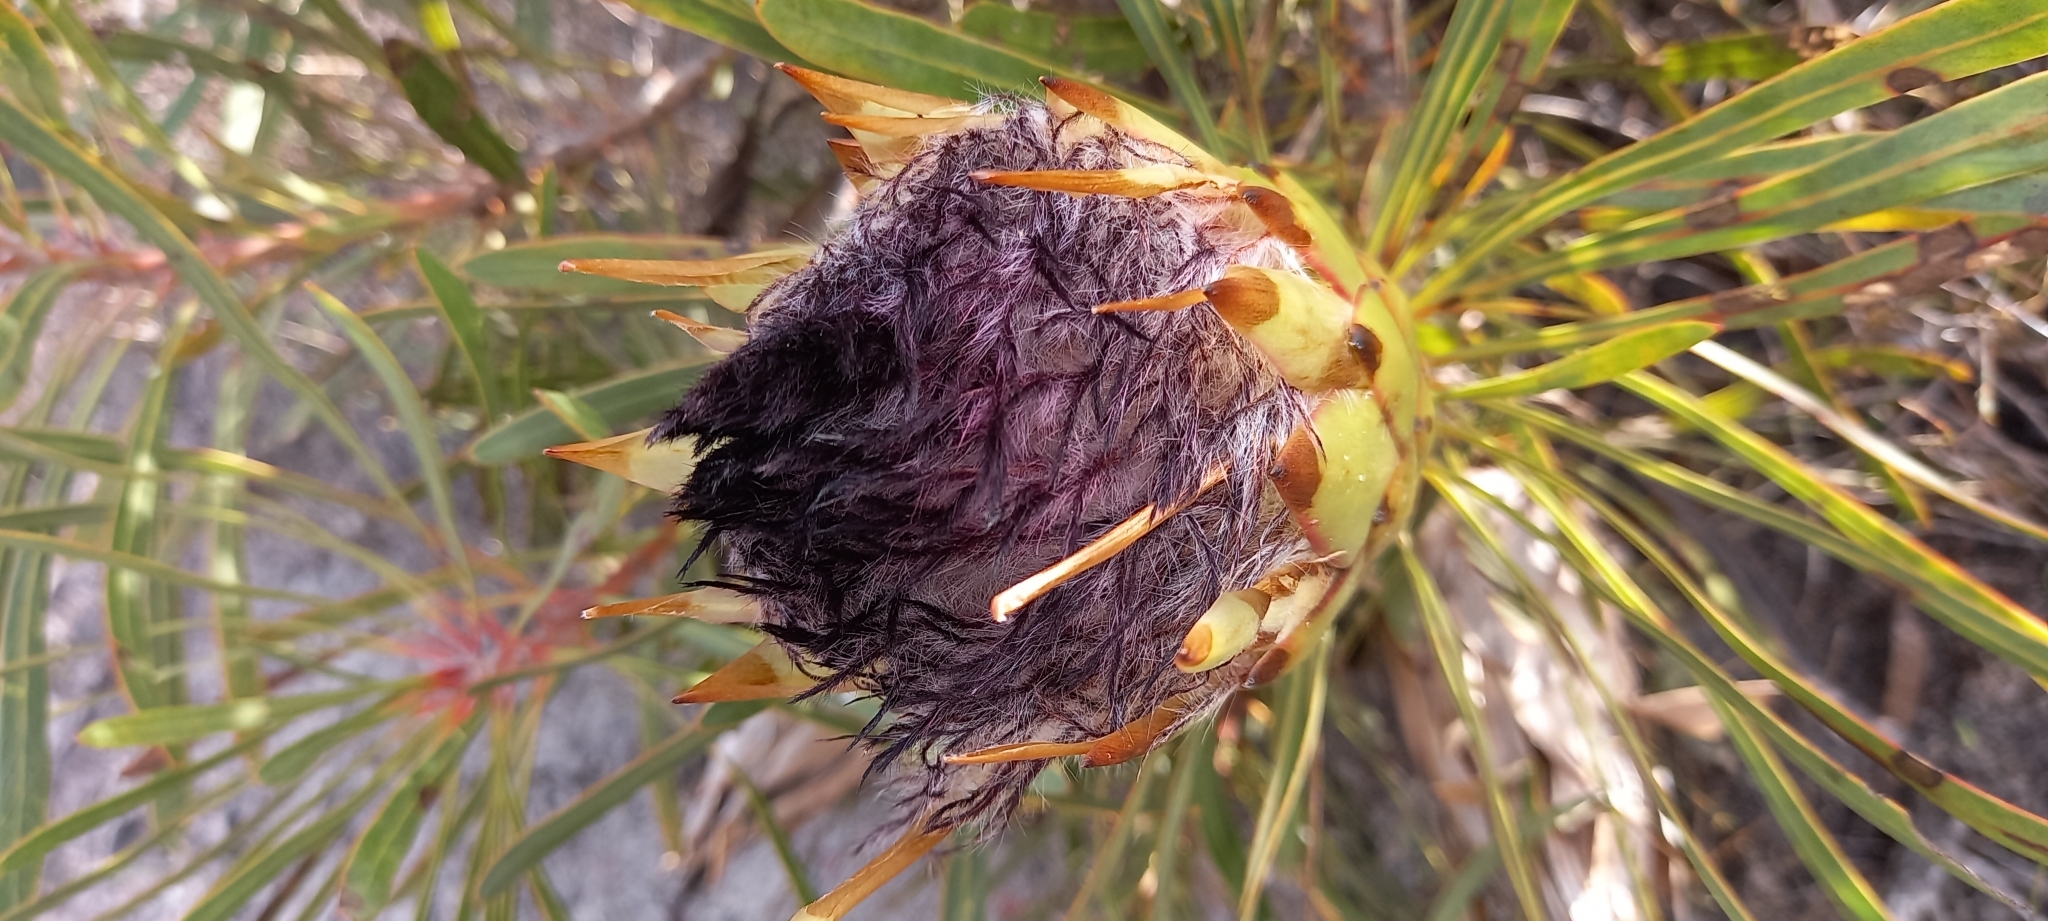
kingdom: Plantae
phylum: Tracheophyta
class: Magnoliopsida
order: Proteales
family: Proteaceae
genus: Protea
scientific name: Protea longifolia
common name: Long-leaf sugarbush
